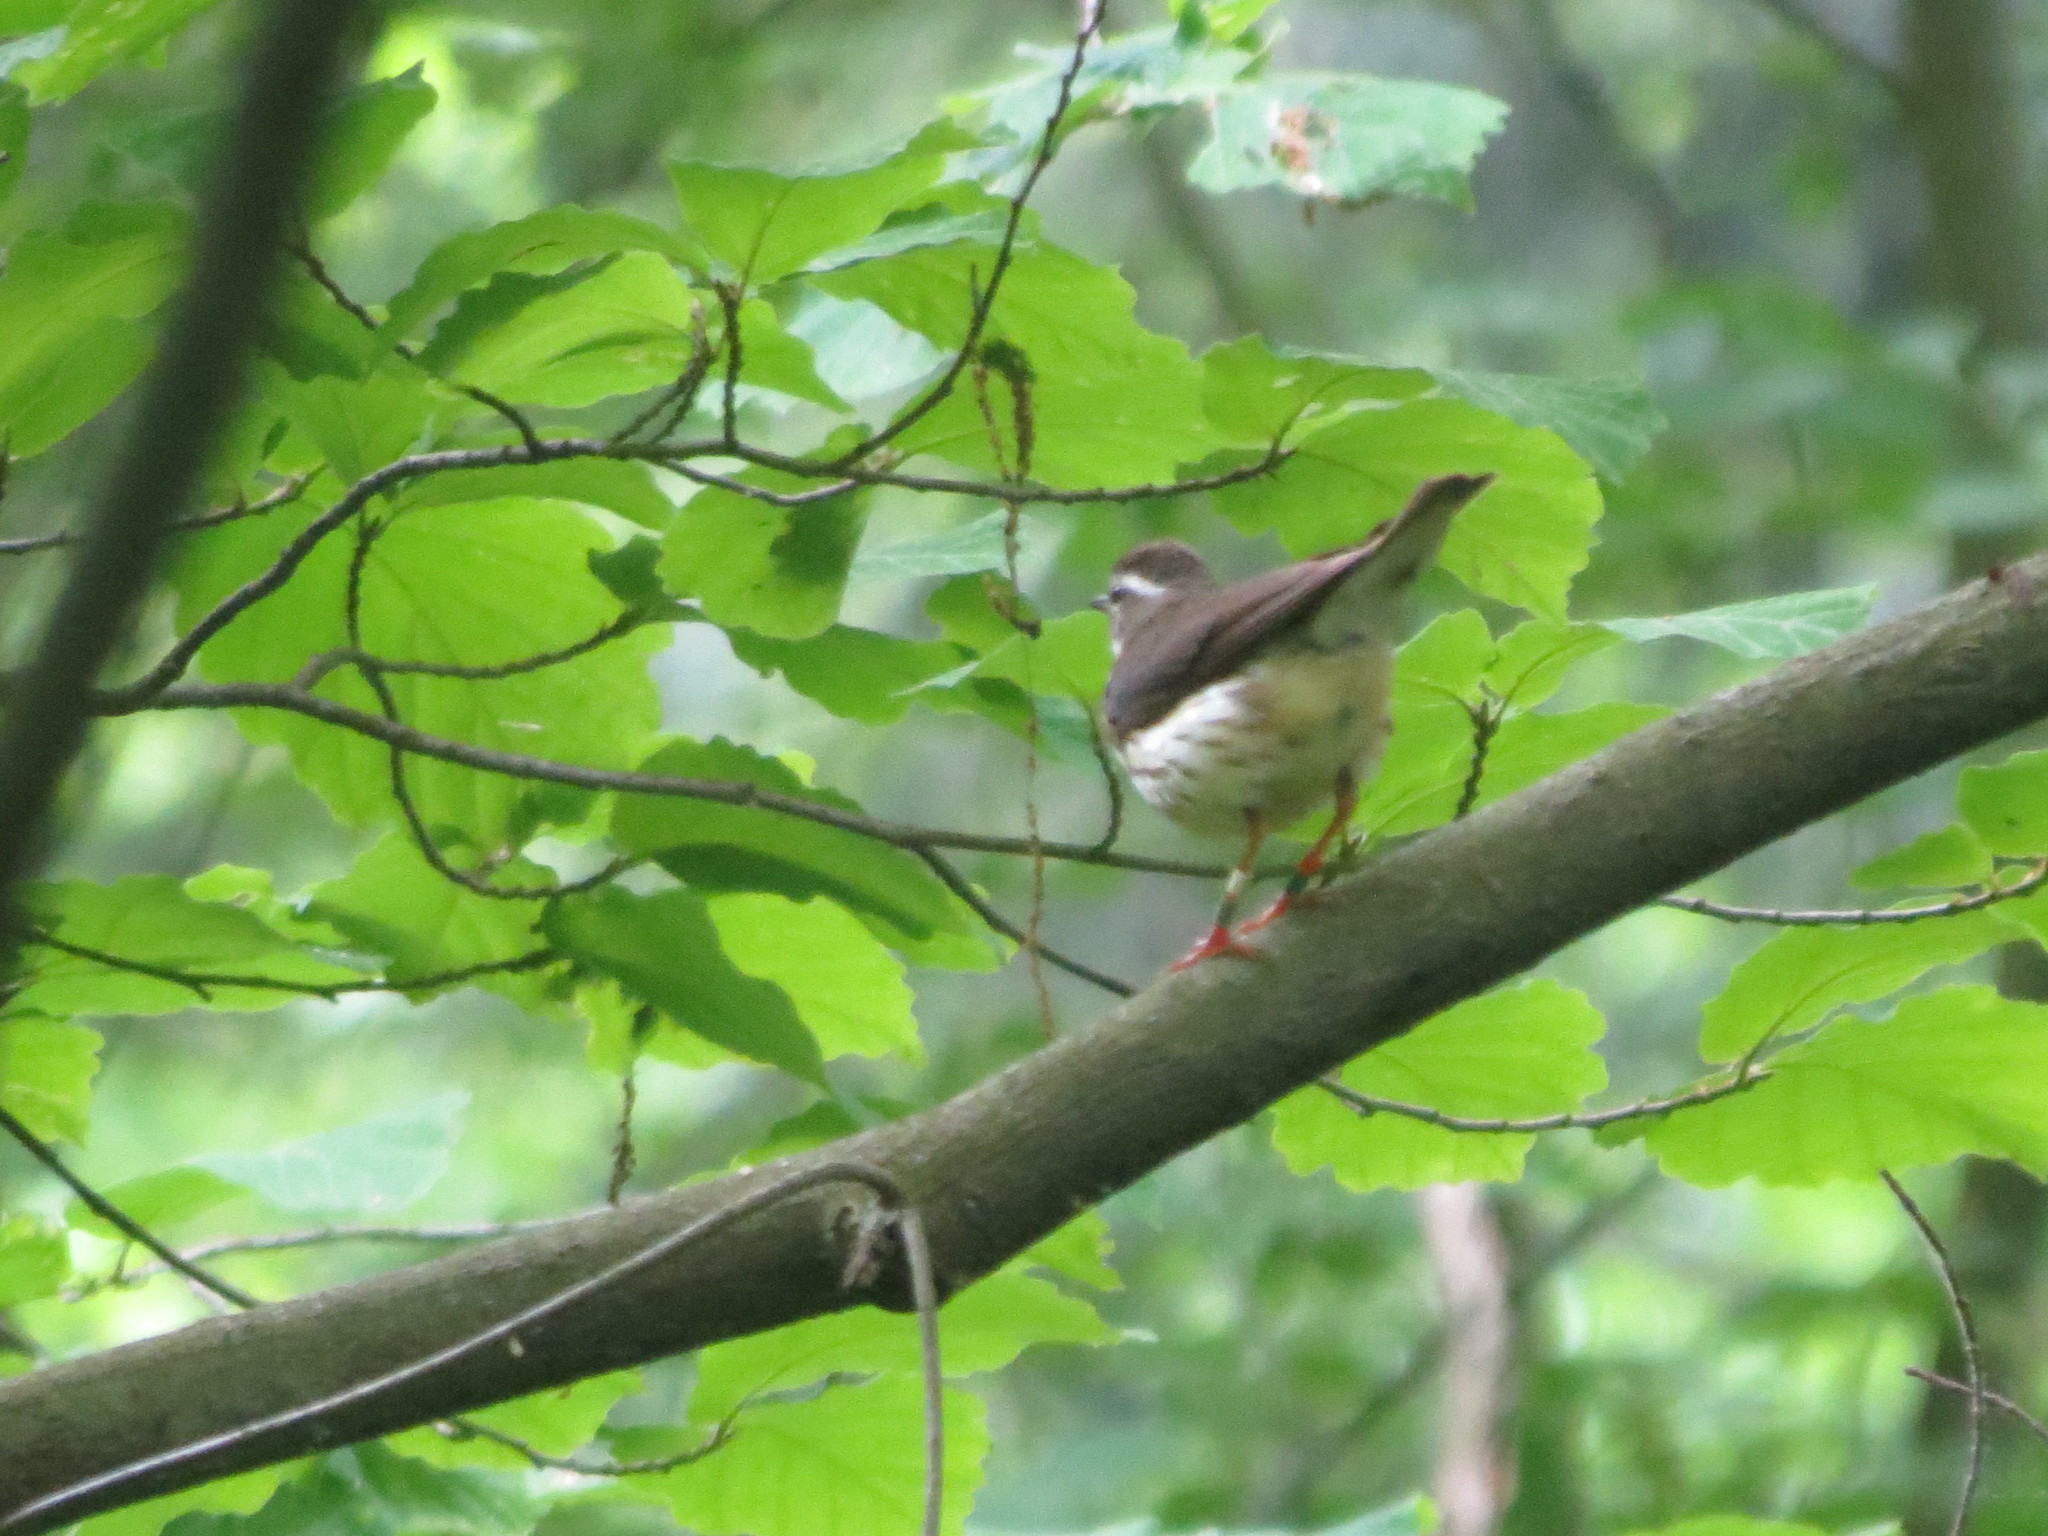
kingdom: Animalia
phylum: Chordata
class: Aves
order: Passeriformes
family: Parulidae
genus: Parkesia
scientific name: Parkesia motacilla
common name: Louisiana waterthrush
